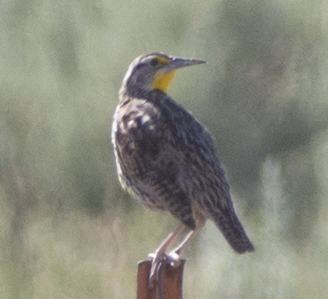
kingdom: Animalia
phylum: Chordata
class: Aves
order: Passeriformes
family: Icteridae
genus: Sturnella
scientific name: Sturnella neglecta
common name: Western meadowlark
